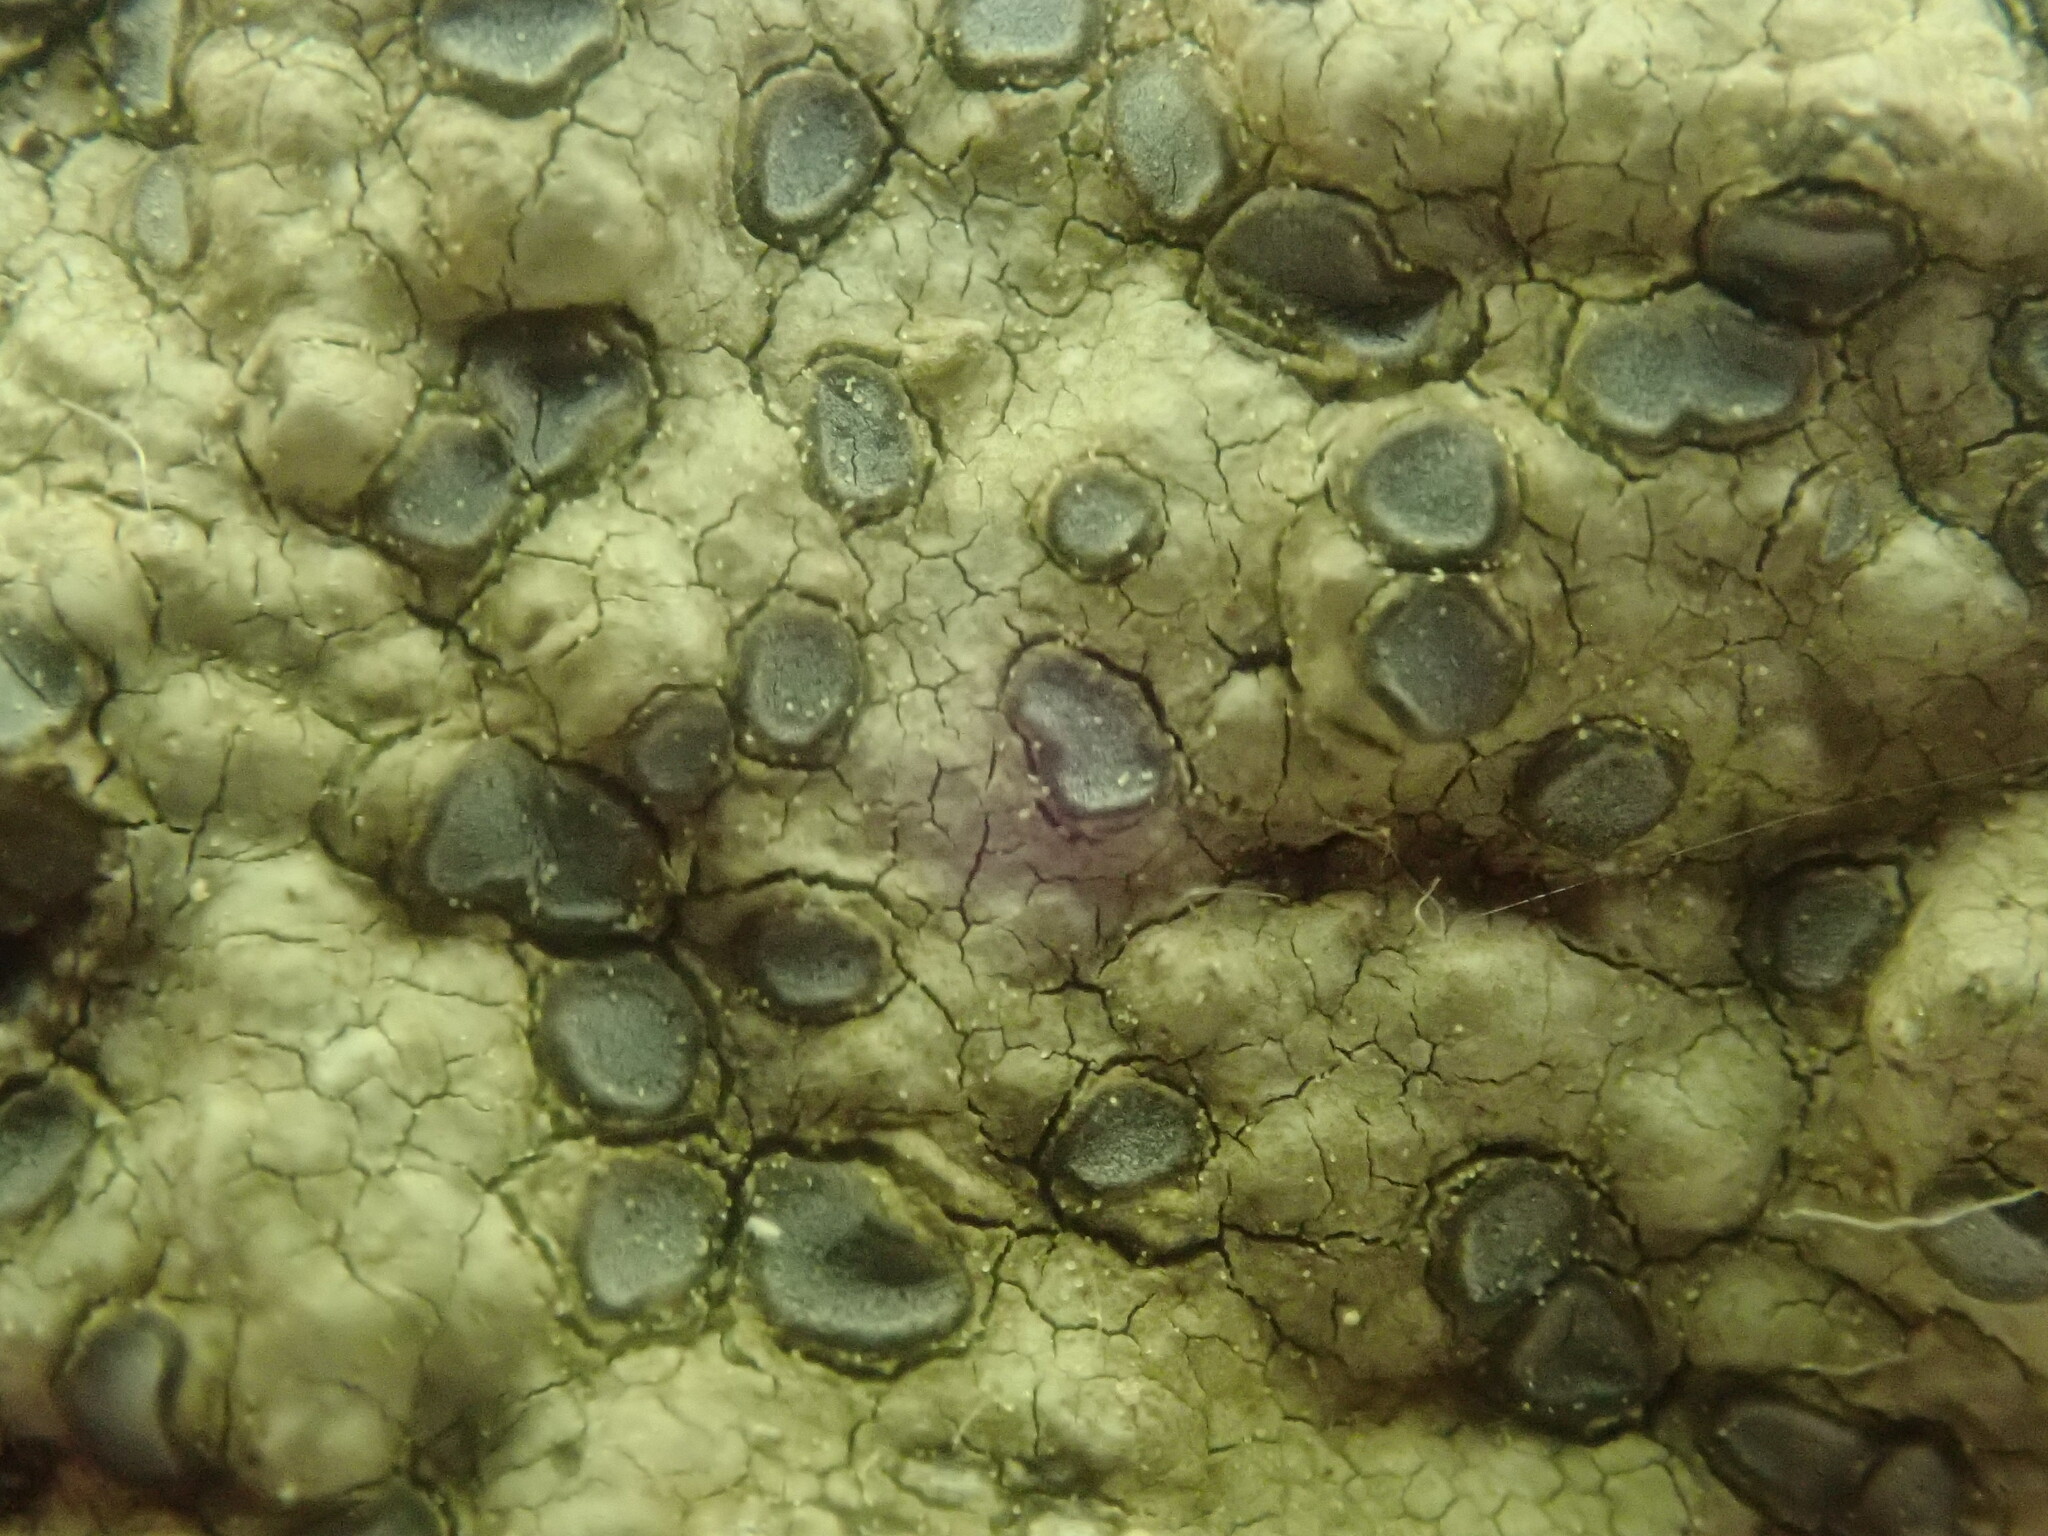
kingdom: Fungi
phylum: Ascomycota
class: Lecanoromycetes
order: Lecideales
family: Lecideaceae
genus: Porpidia
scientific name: Porpidia albocaerulescens
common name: Smokey-eyed boulder lichen
